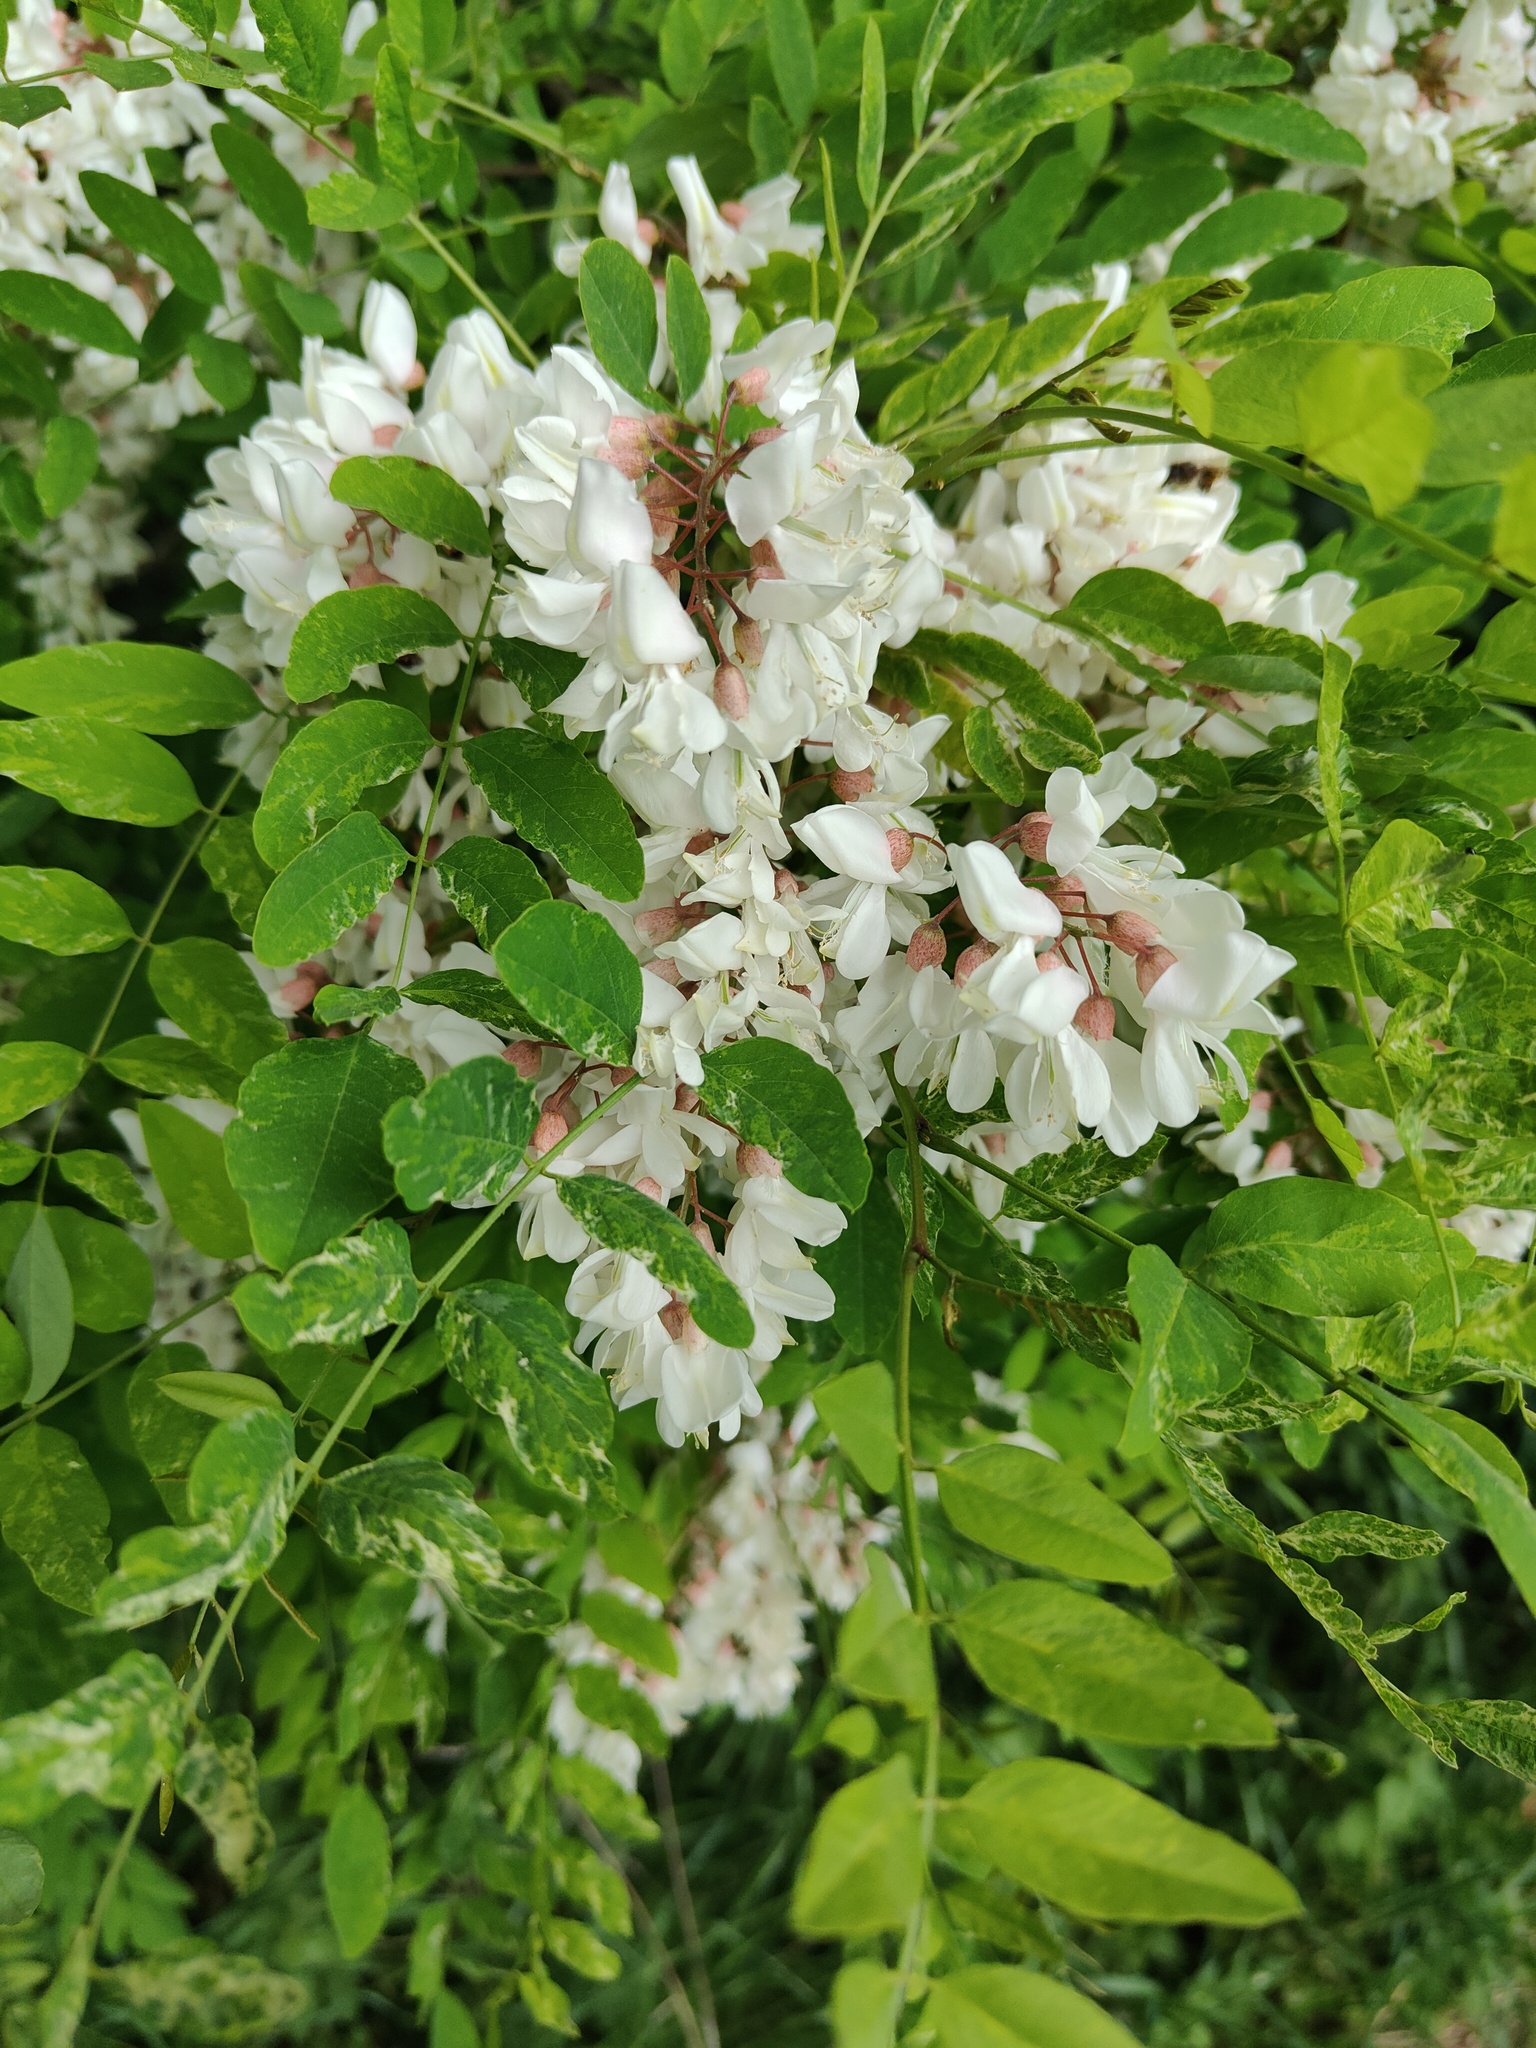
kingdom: Plantae
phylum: Tracheophyta
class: Magnoliopsida
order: Fabales
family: Fabaceae
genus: Robinia
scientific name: Robinia pseudoacacia
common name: Black locust
